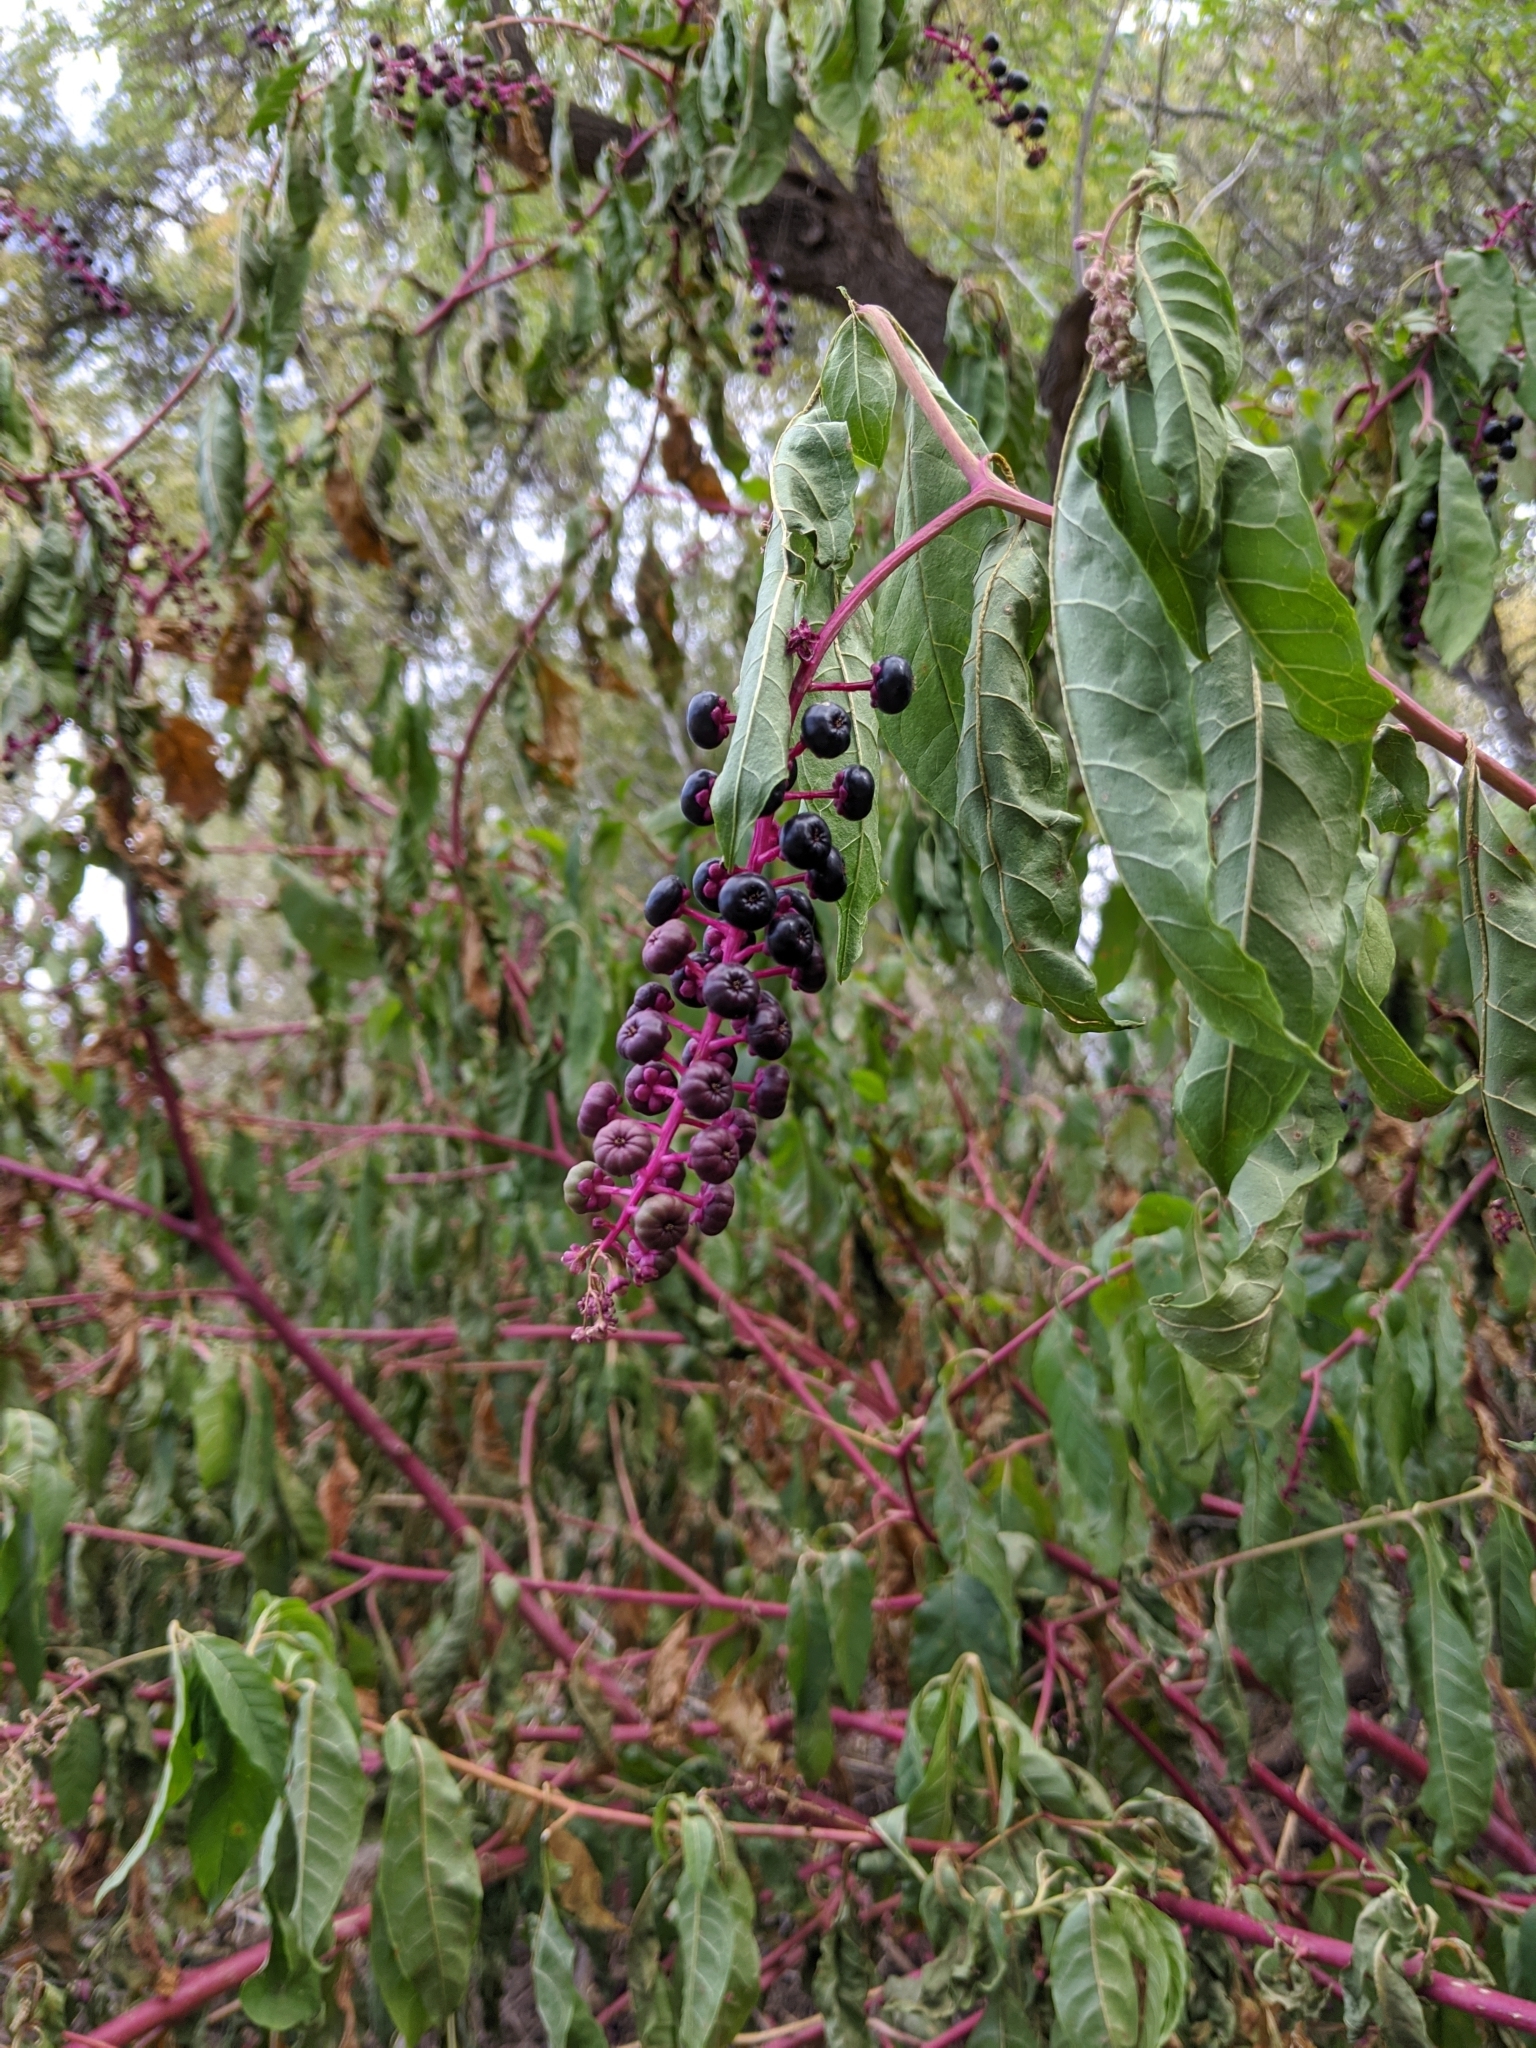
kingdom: Plantae
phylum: Tracheophyta
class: Magnoliopsida
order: Caryophyllales
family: Phytolaccaceae
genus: Phytolacca
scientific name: Phytolacca americana
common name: American pokeweed
